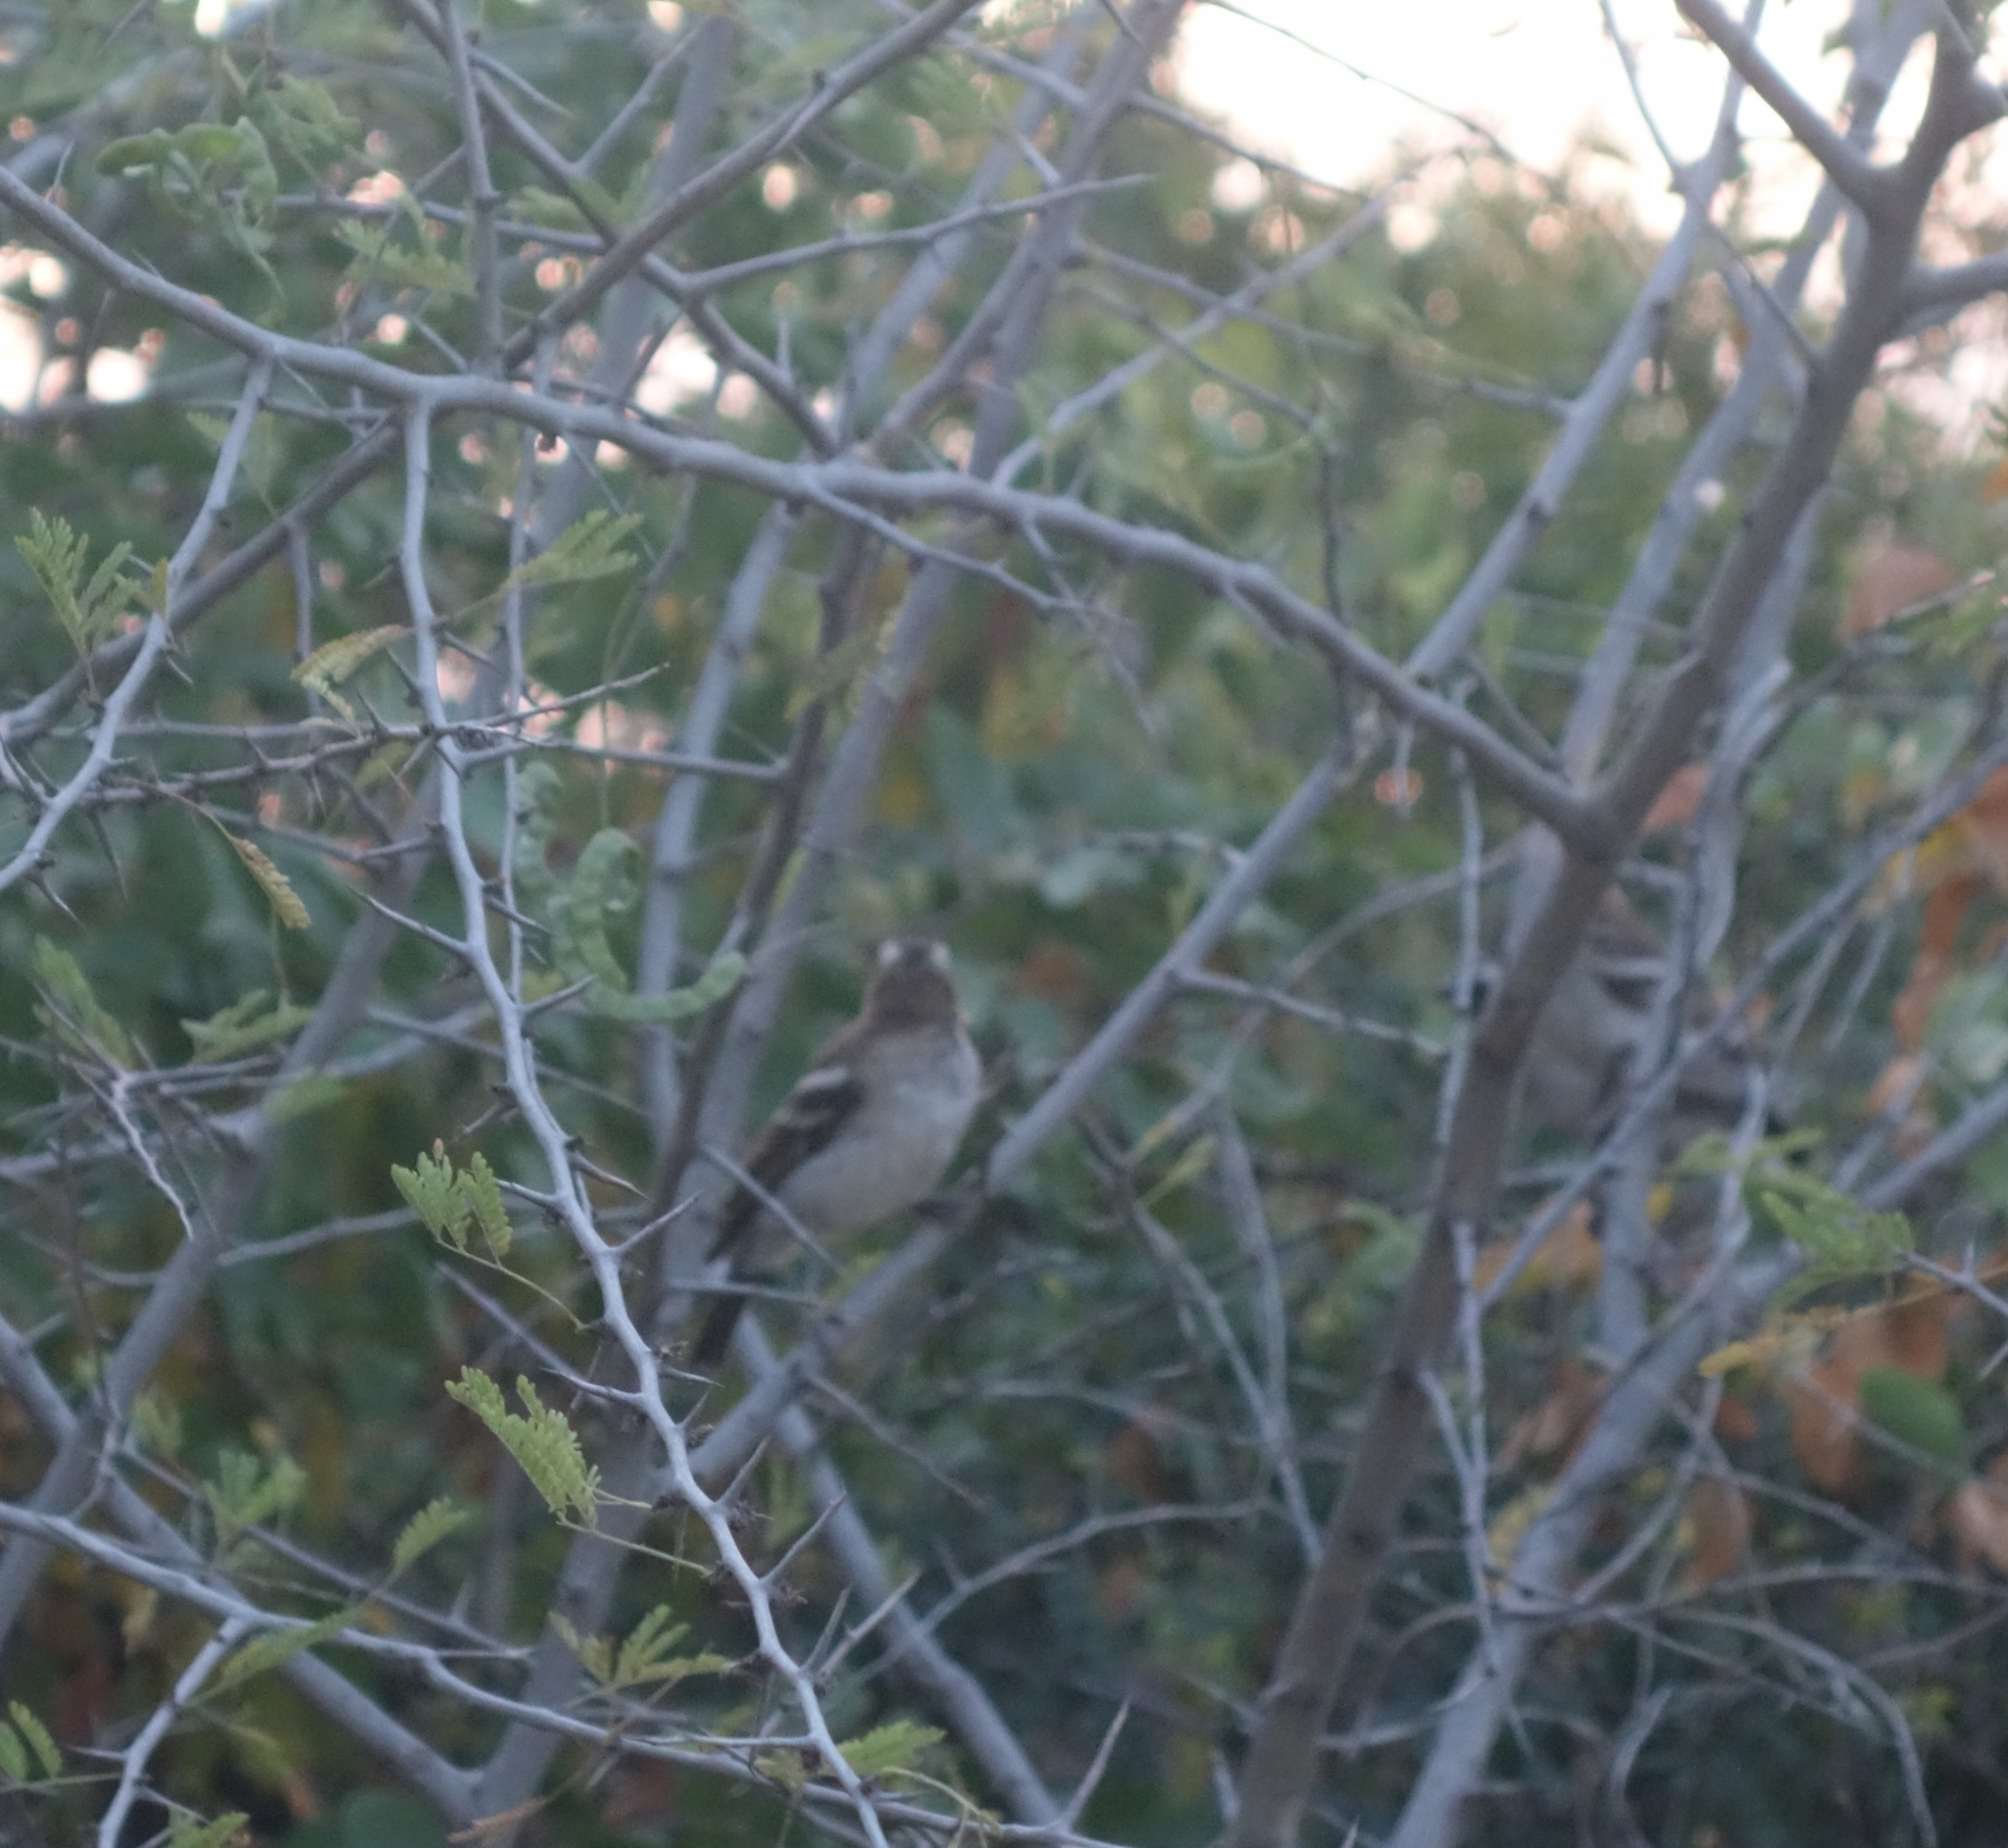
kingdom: Animalia
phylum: Chordata
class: Aves
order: Passeriformes
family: Passeridae
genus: Plocepasser
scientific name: Plocepasser mahali
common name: White-browed sparrow-weaver
